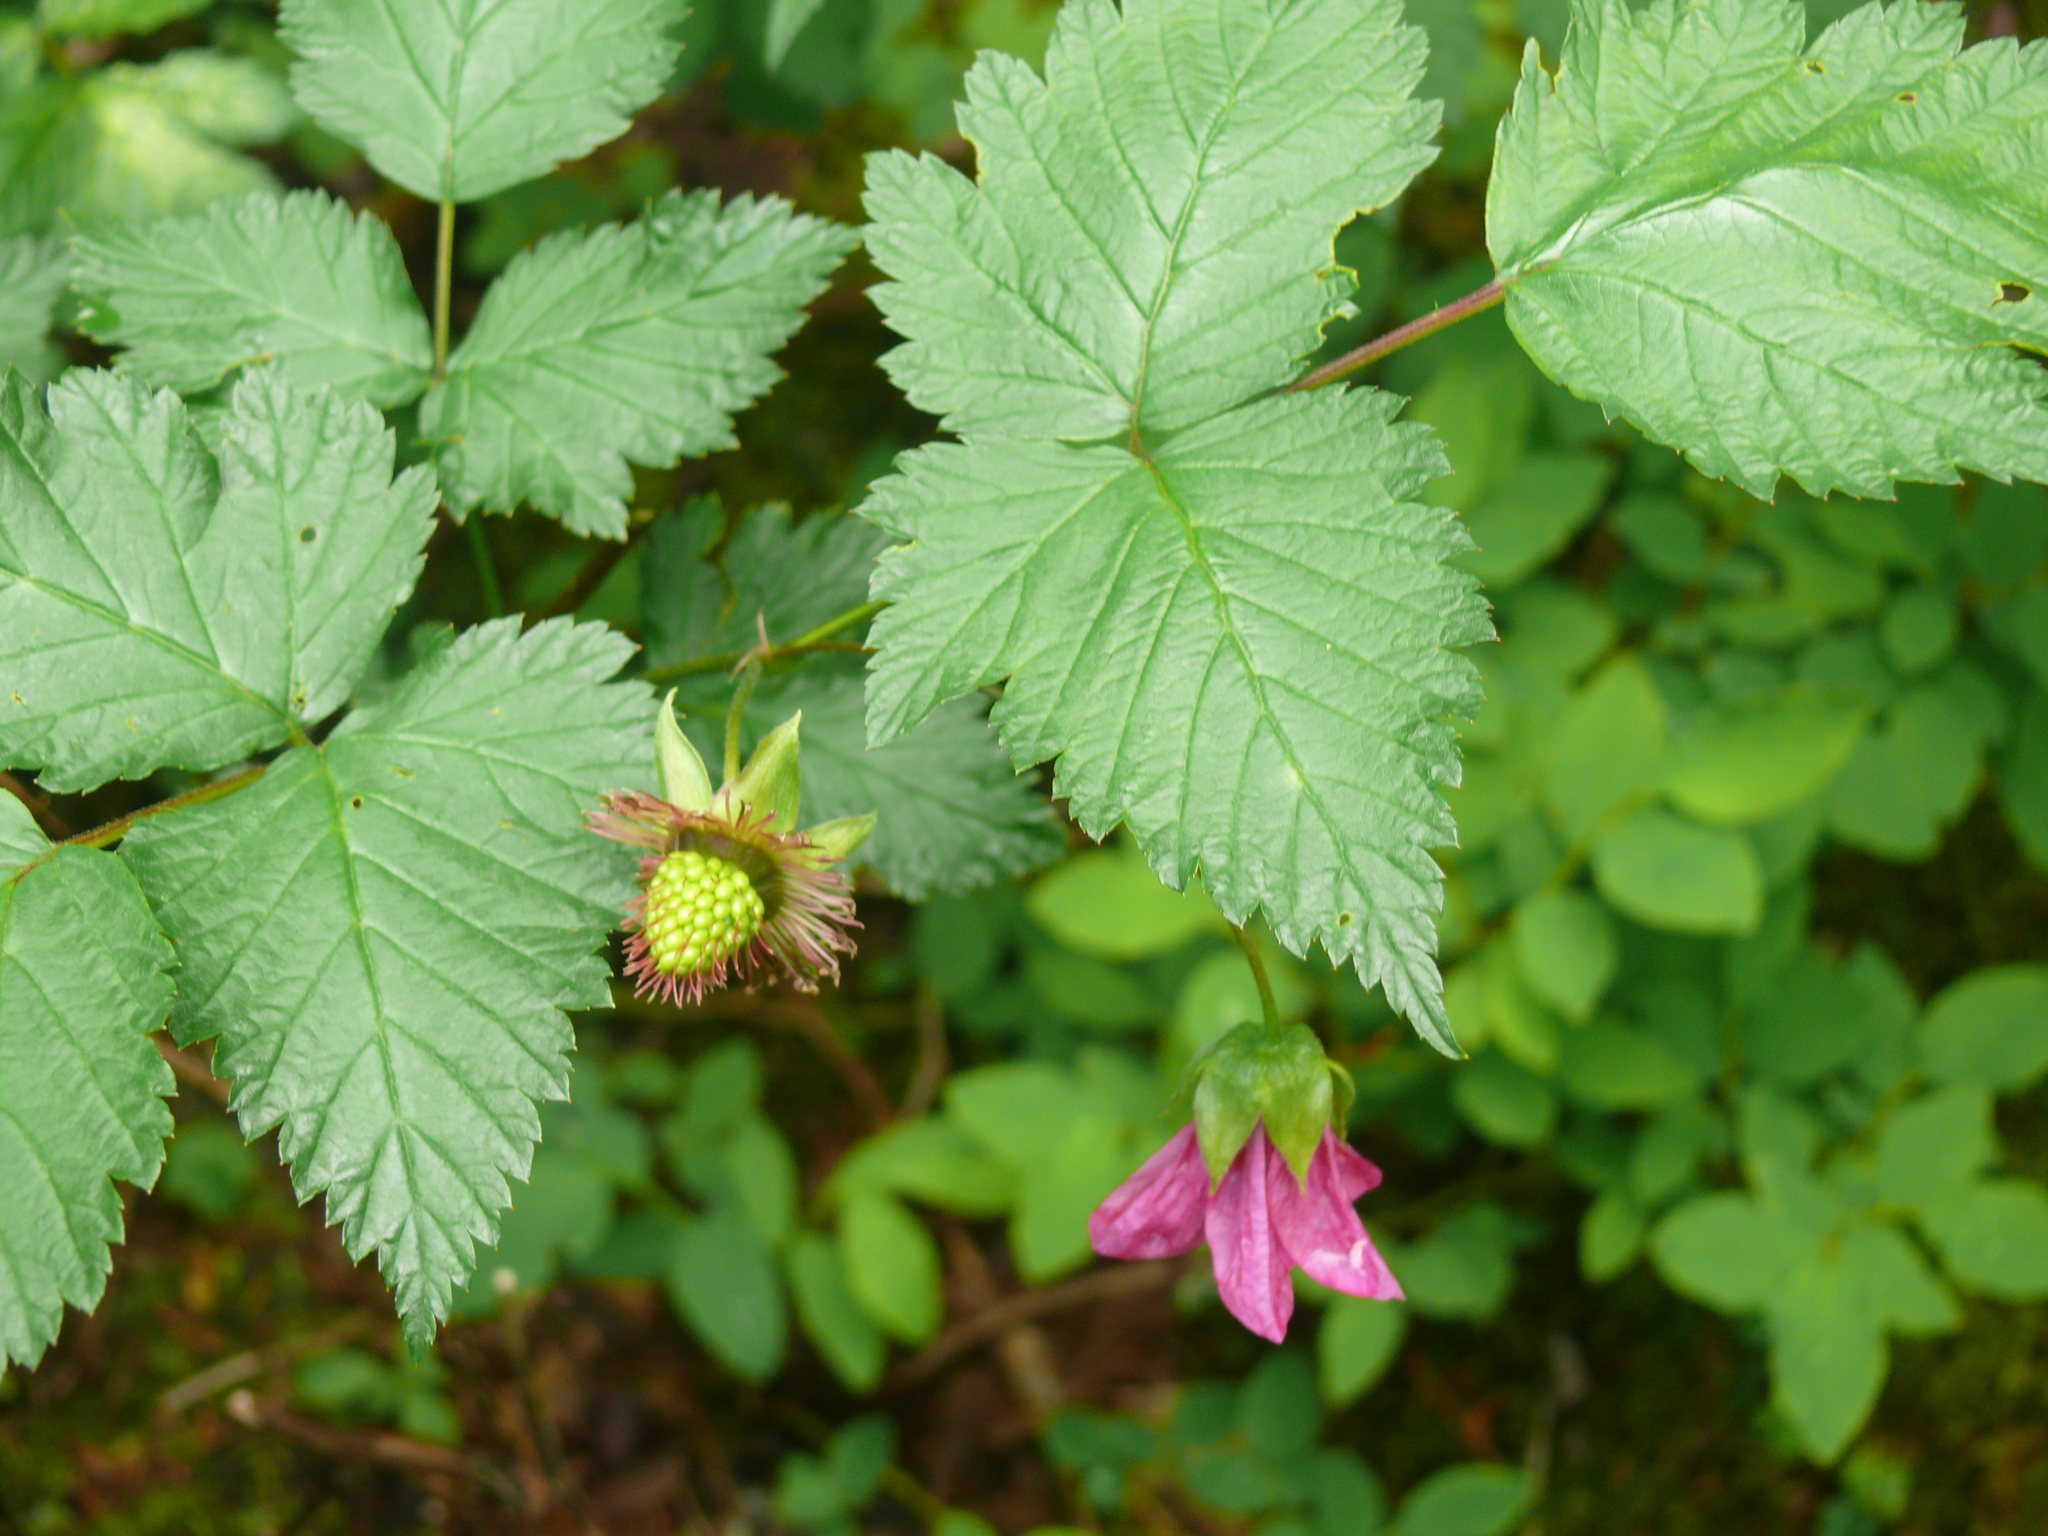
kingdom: Plantae
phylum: Tracheophyta
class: Magnoliopsida
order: Rosales
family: Rosaceae
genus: Rubus
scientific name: Rubus spectabilis
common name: Salmonberry
